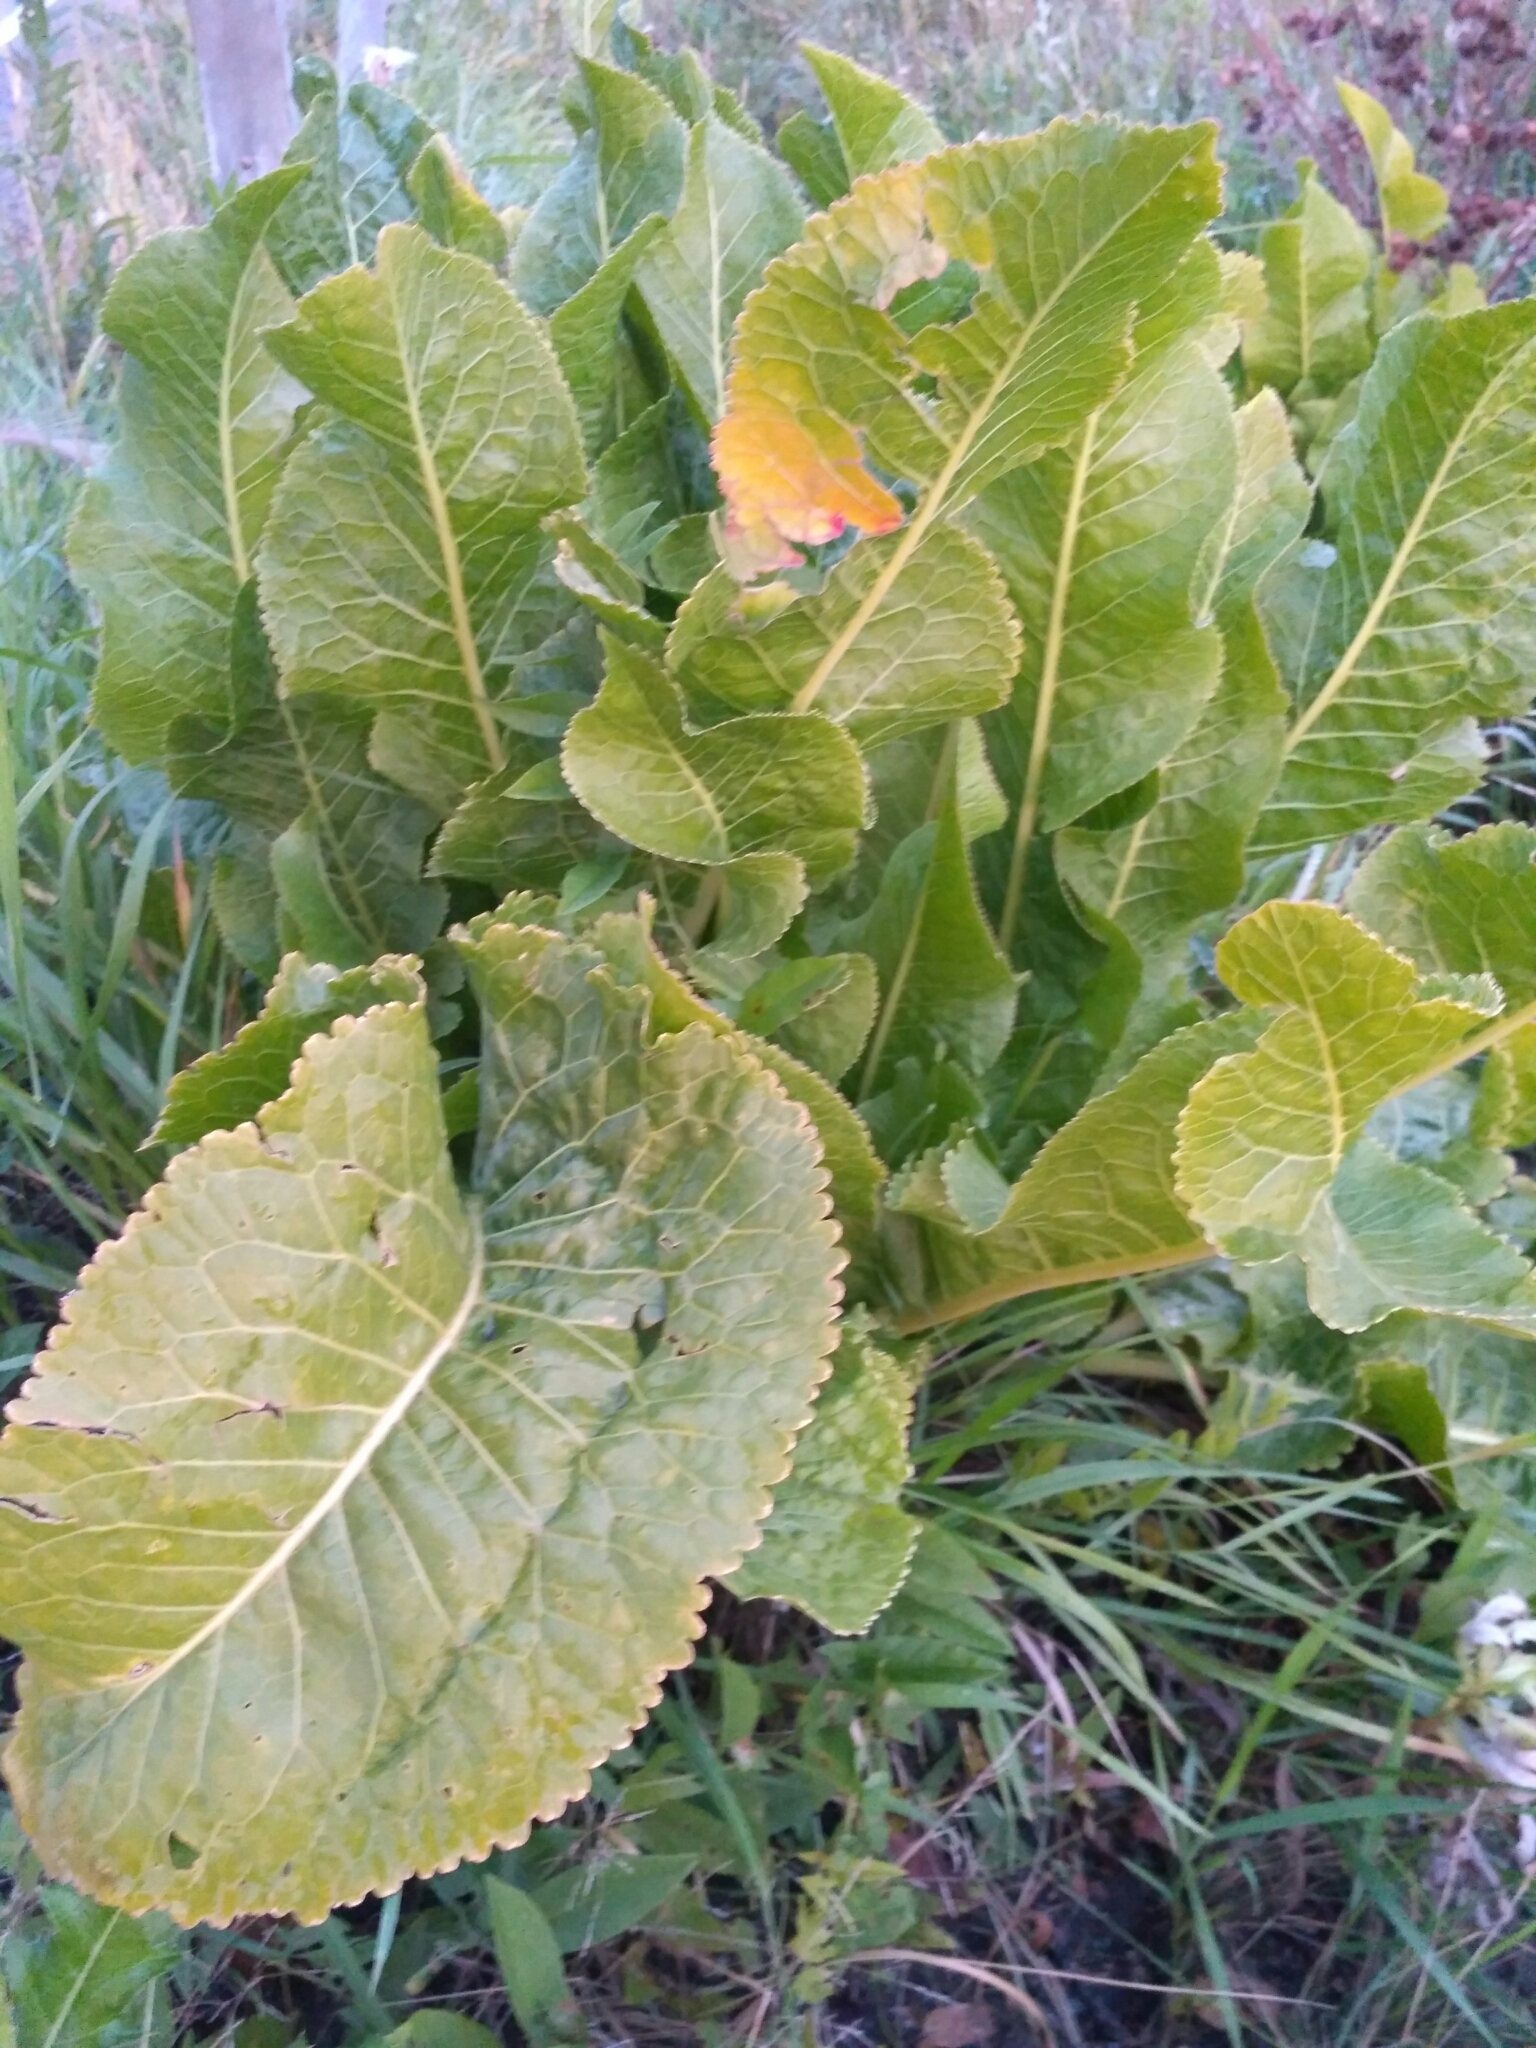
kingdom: Plantae
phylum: Tracheophyta
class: Magnoliopsida
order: Brassicales
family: Brassicaceae
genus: Armoracia
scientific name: Armoracia rusticana
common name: Horseradish
